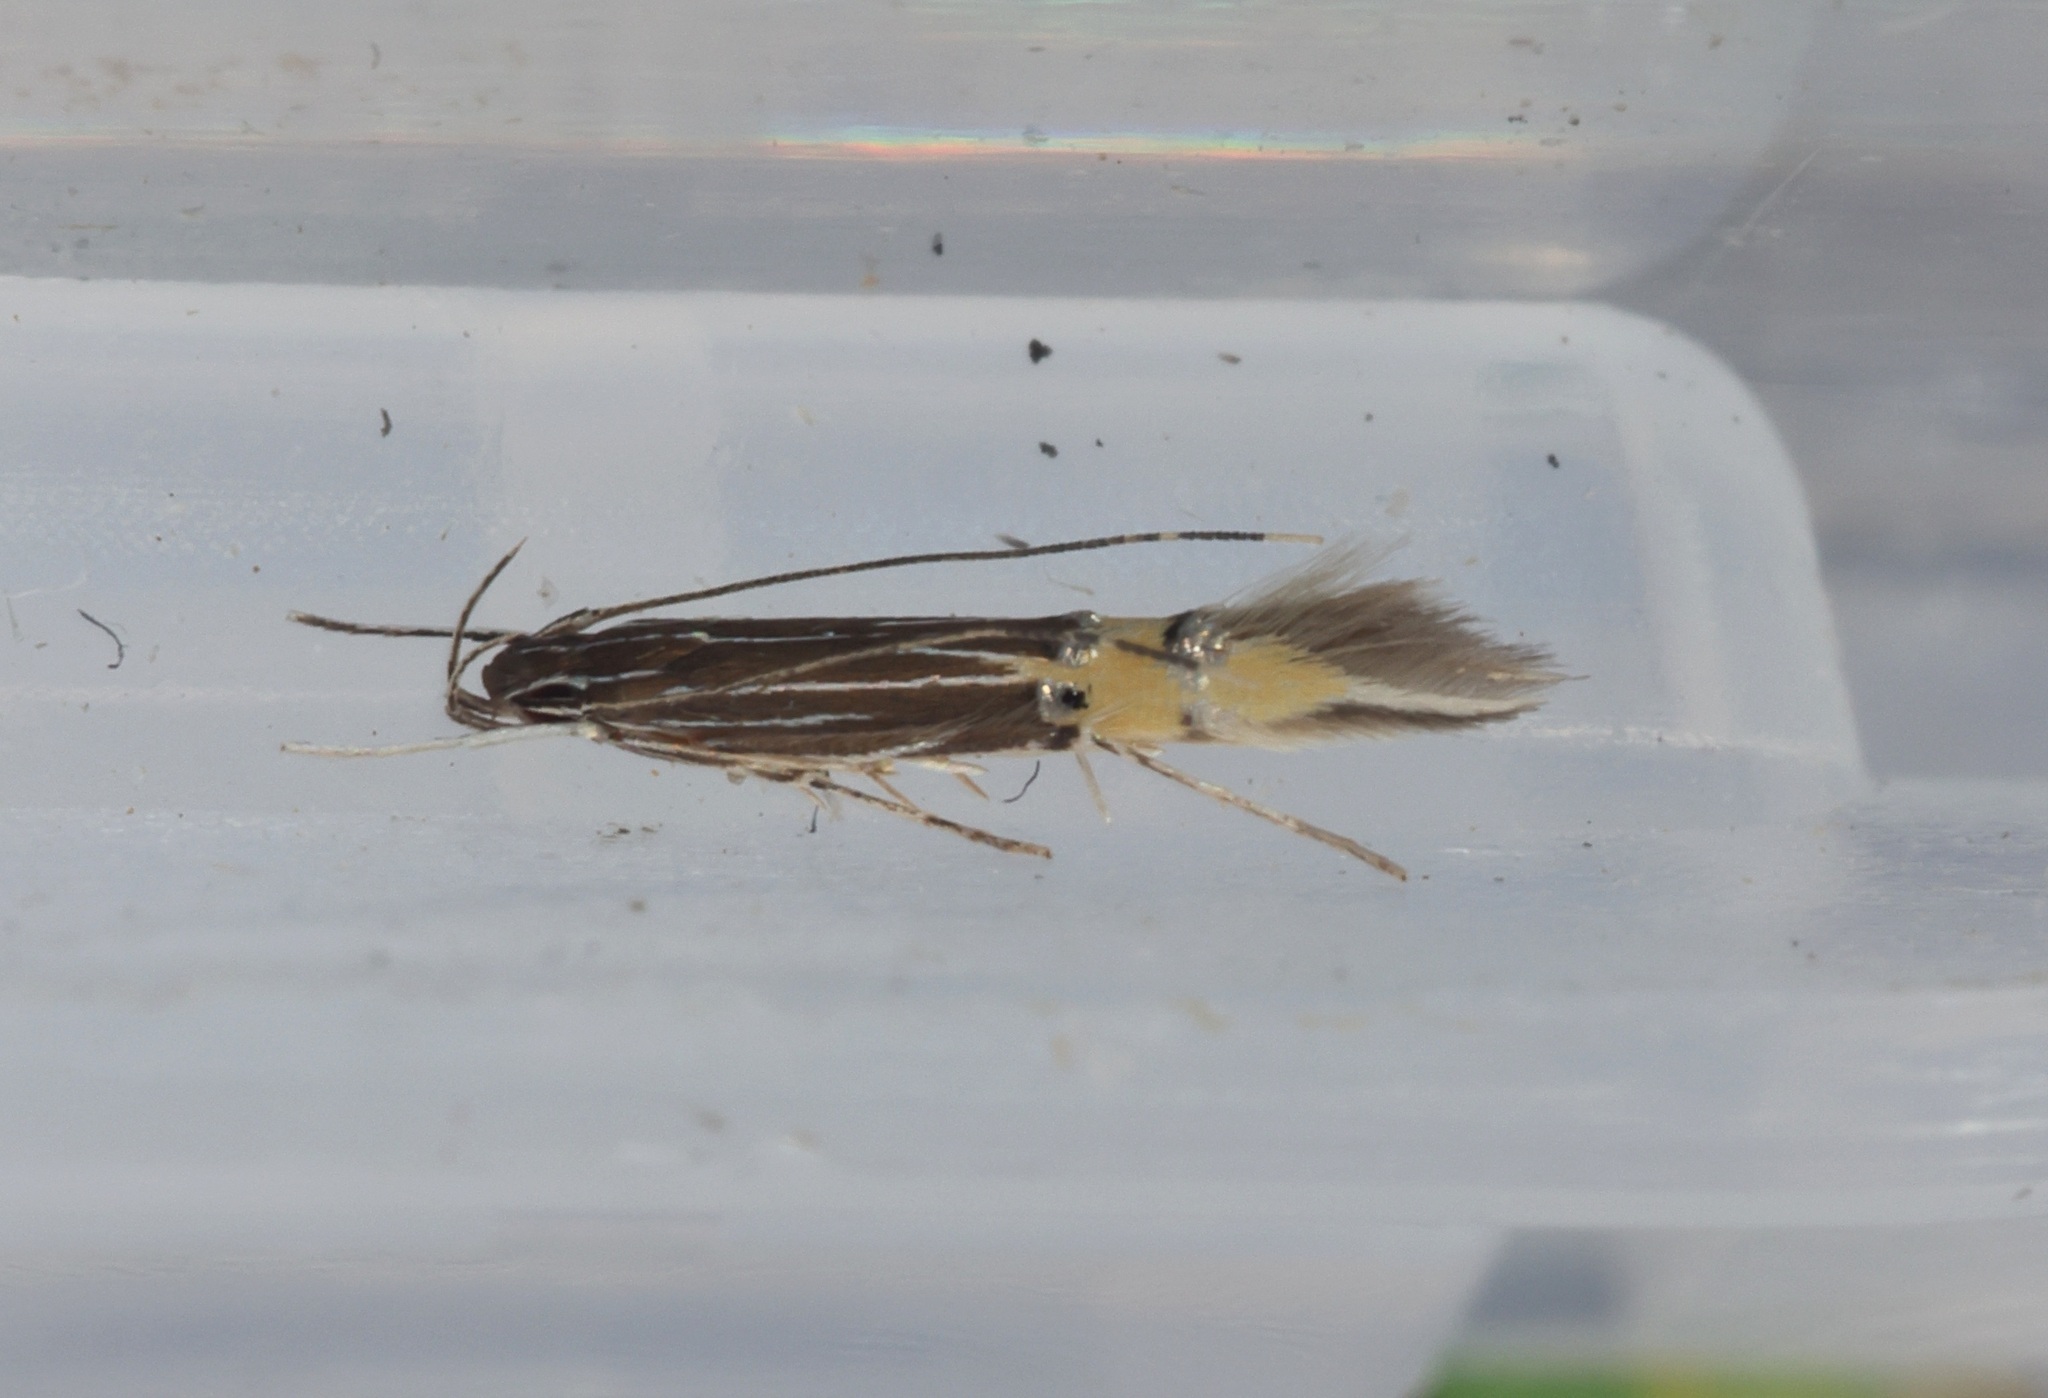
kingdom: Animalia
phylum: Arthropoda
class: Insecta
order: Lepidoptera
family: Cosmopterigidae
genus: Cosmopterix
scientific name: Cosmopterix hamifera
